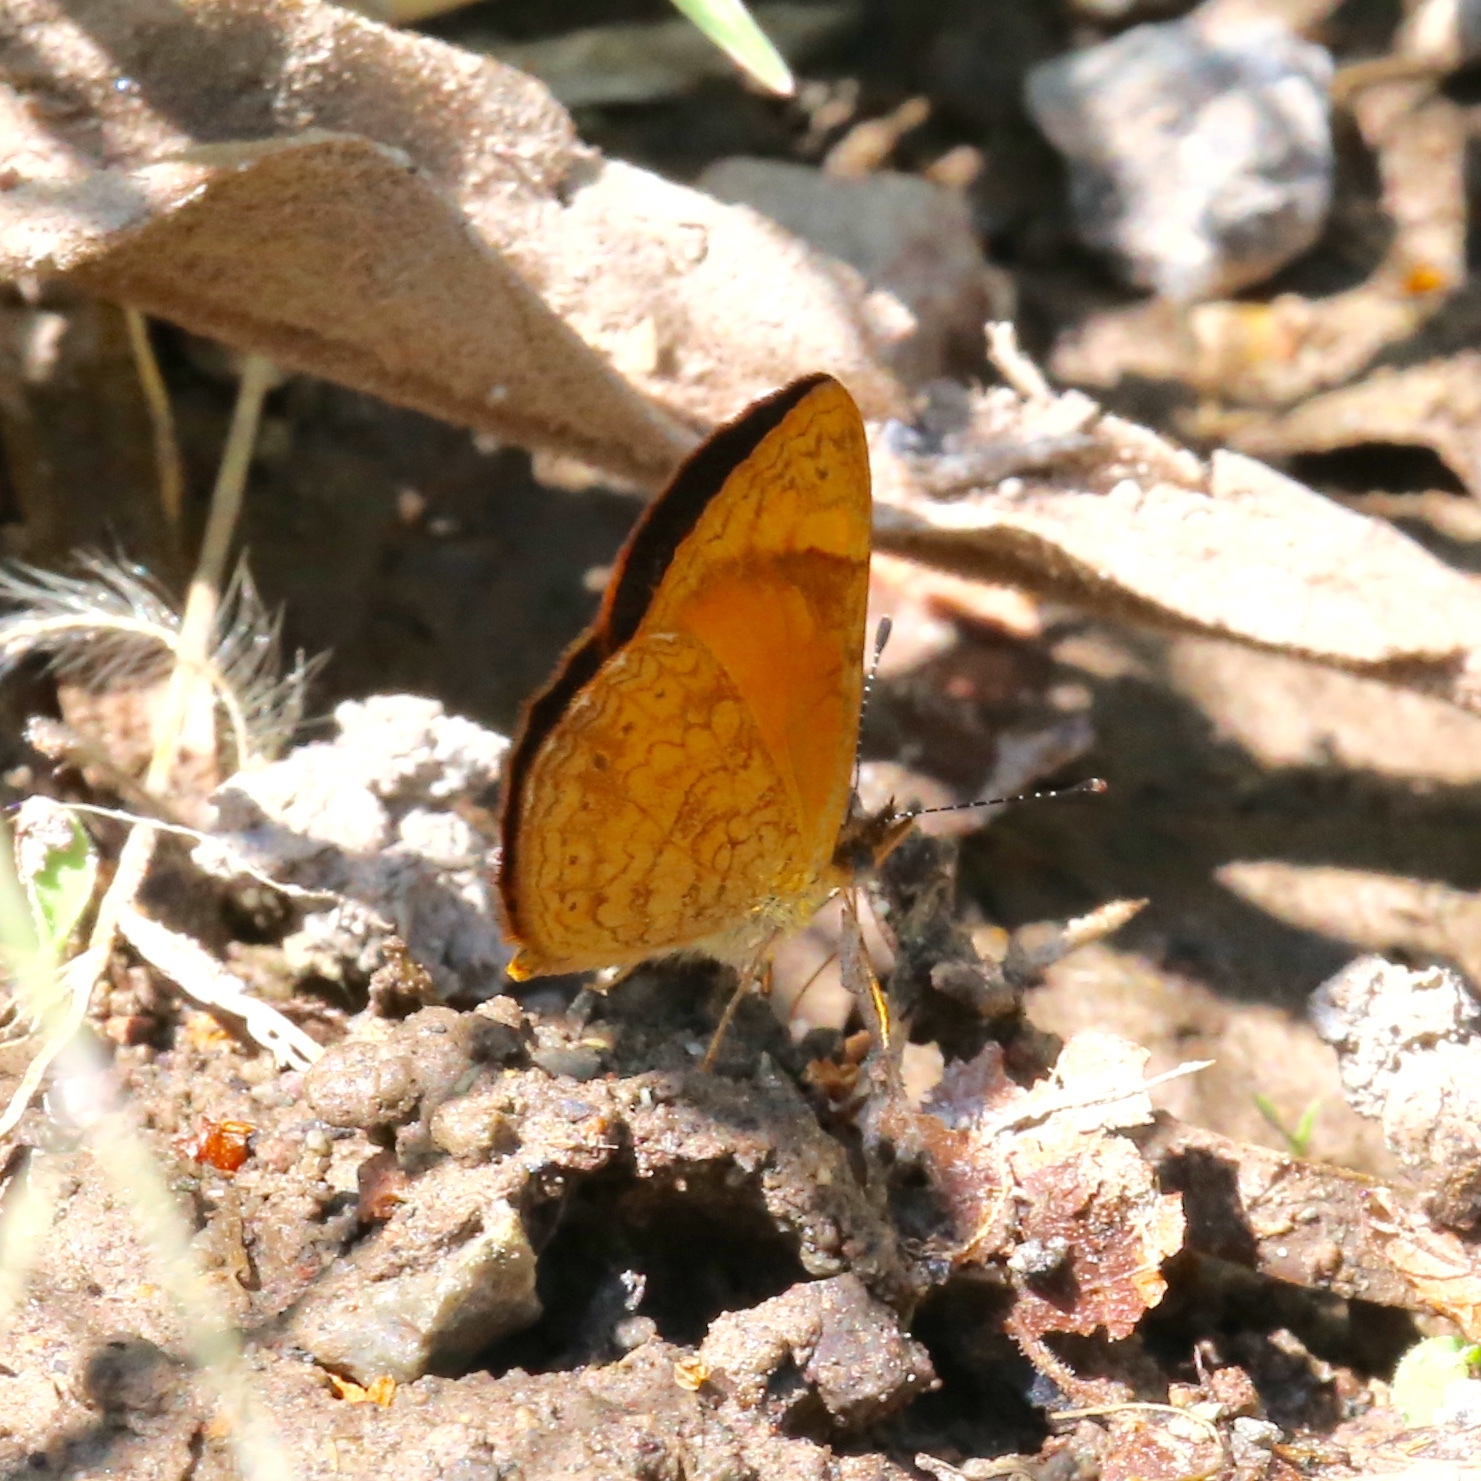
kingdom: Animalia
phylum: Arthropoda
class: Insecta
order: Lepidoptera
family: Nymphalidae
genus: Tegosa
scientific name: Tegosa anieta
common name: Black-bordered crescent
